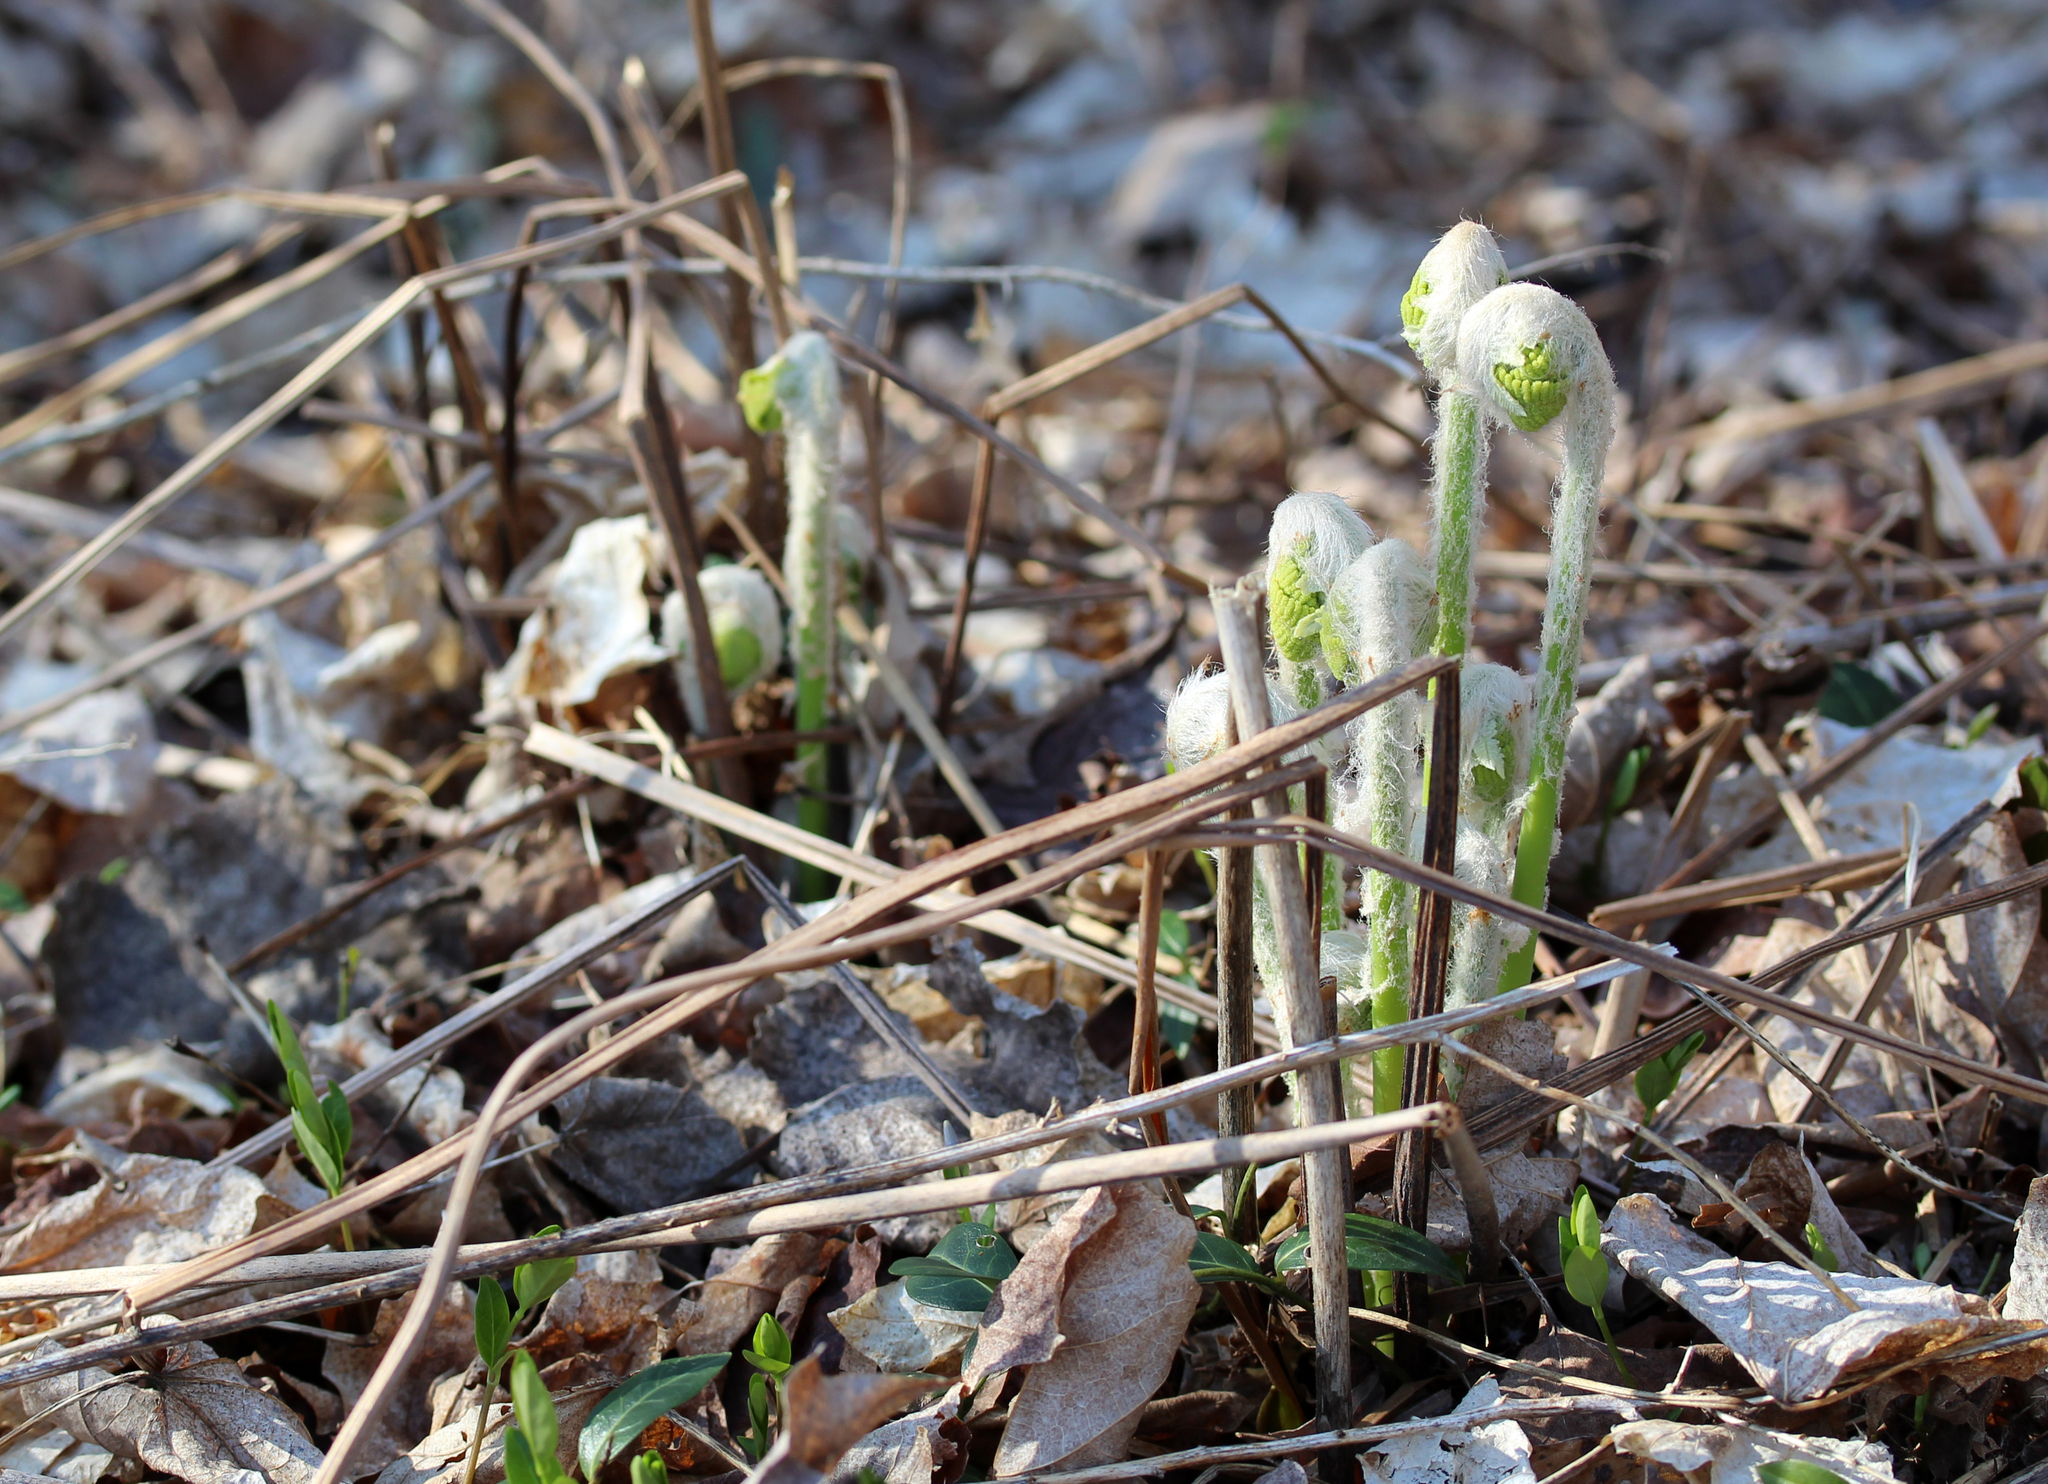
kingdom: Plantae
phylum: Tracheophyta
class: Polypodiopsida
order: Osmundales
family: Osmundaceae
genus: Claytosmunda
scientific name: Claytosmunda claytoniana
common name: Clayton's fern
